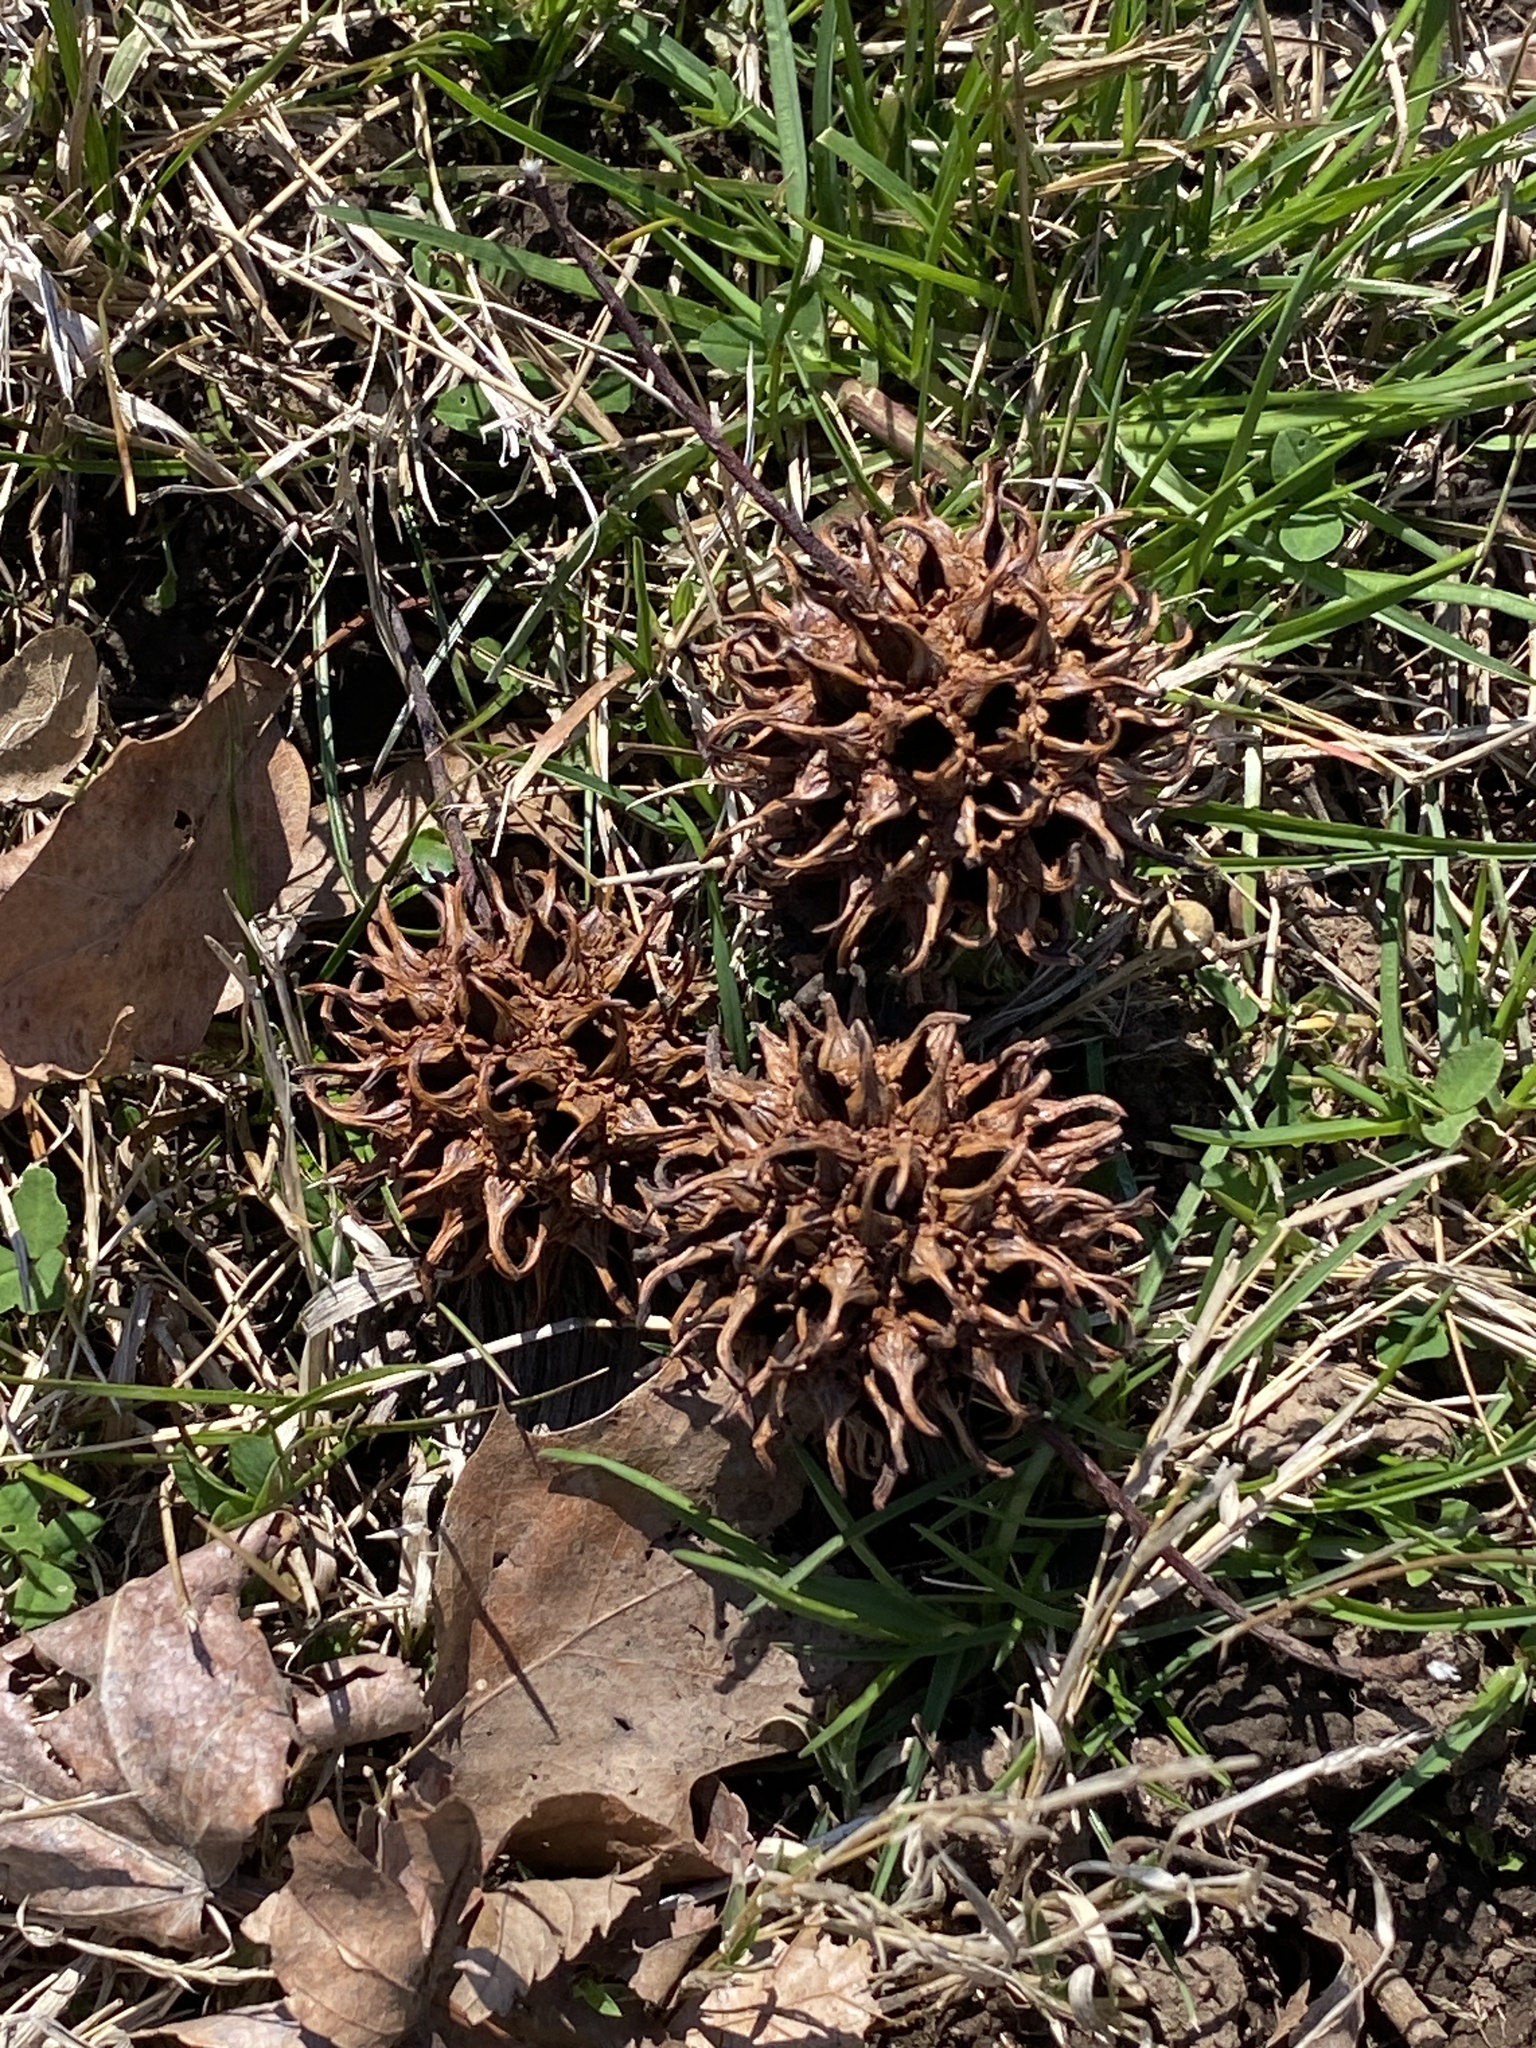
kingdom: Plantae
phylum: Tracheophyta
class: Magnoliopsida
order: Saxifragales
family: Altingiaceae
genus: Liquidambar
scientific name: Liquidambar styraciflua
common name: Sweet gum
